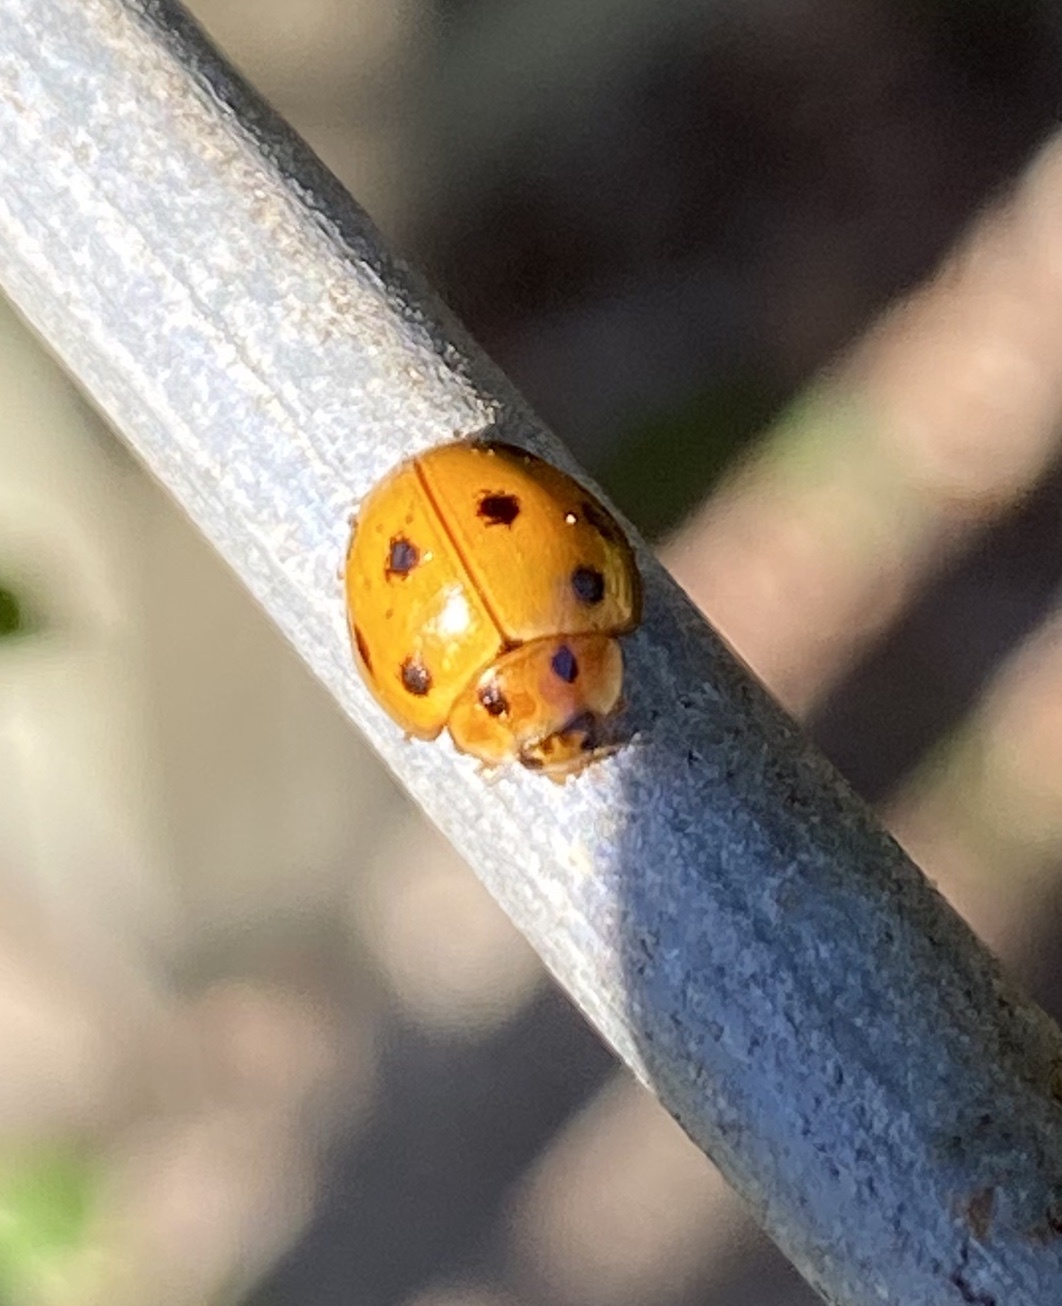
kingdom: Animalia
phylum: Arthropoda
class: Insecta
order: Coleoptera
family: Coccinellidae
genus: Coelophora
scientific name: Coelophora inaequalis
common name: Common australian lady beetle
